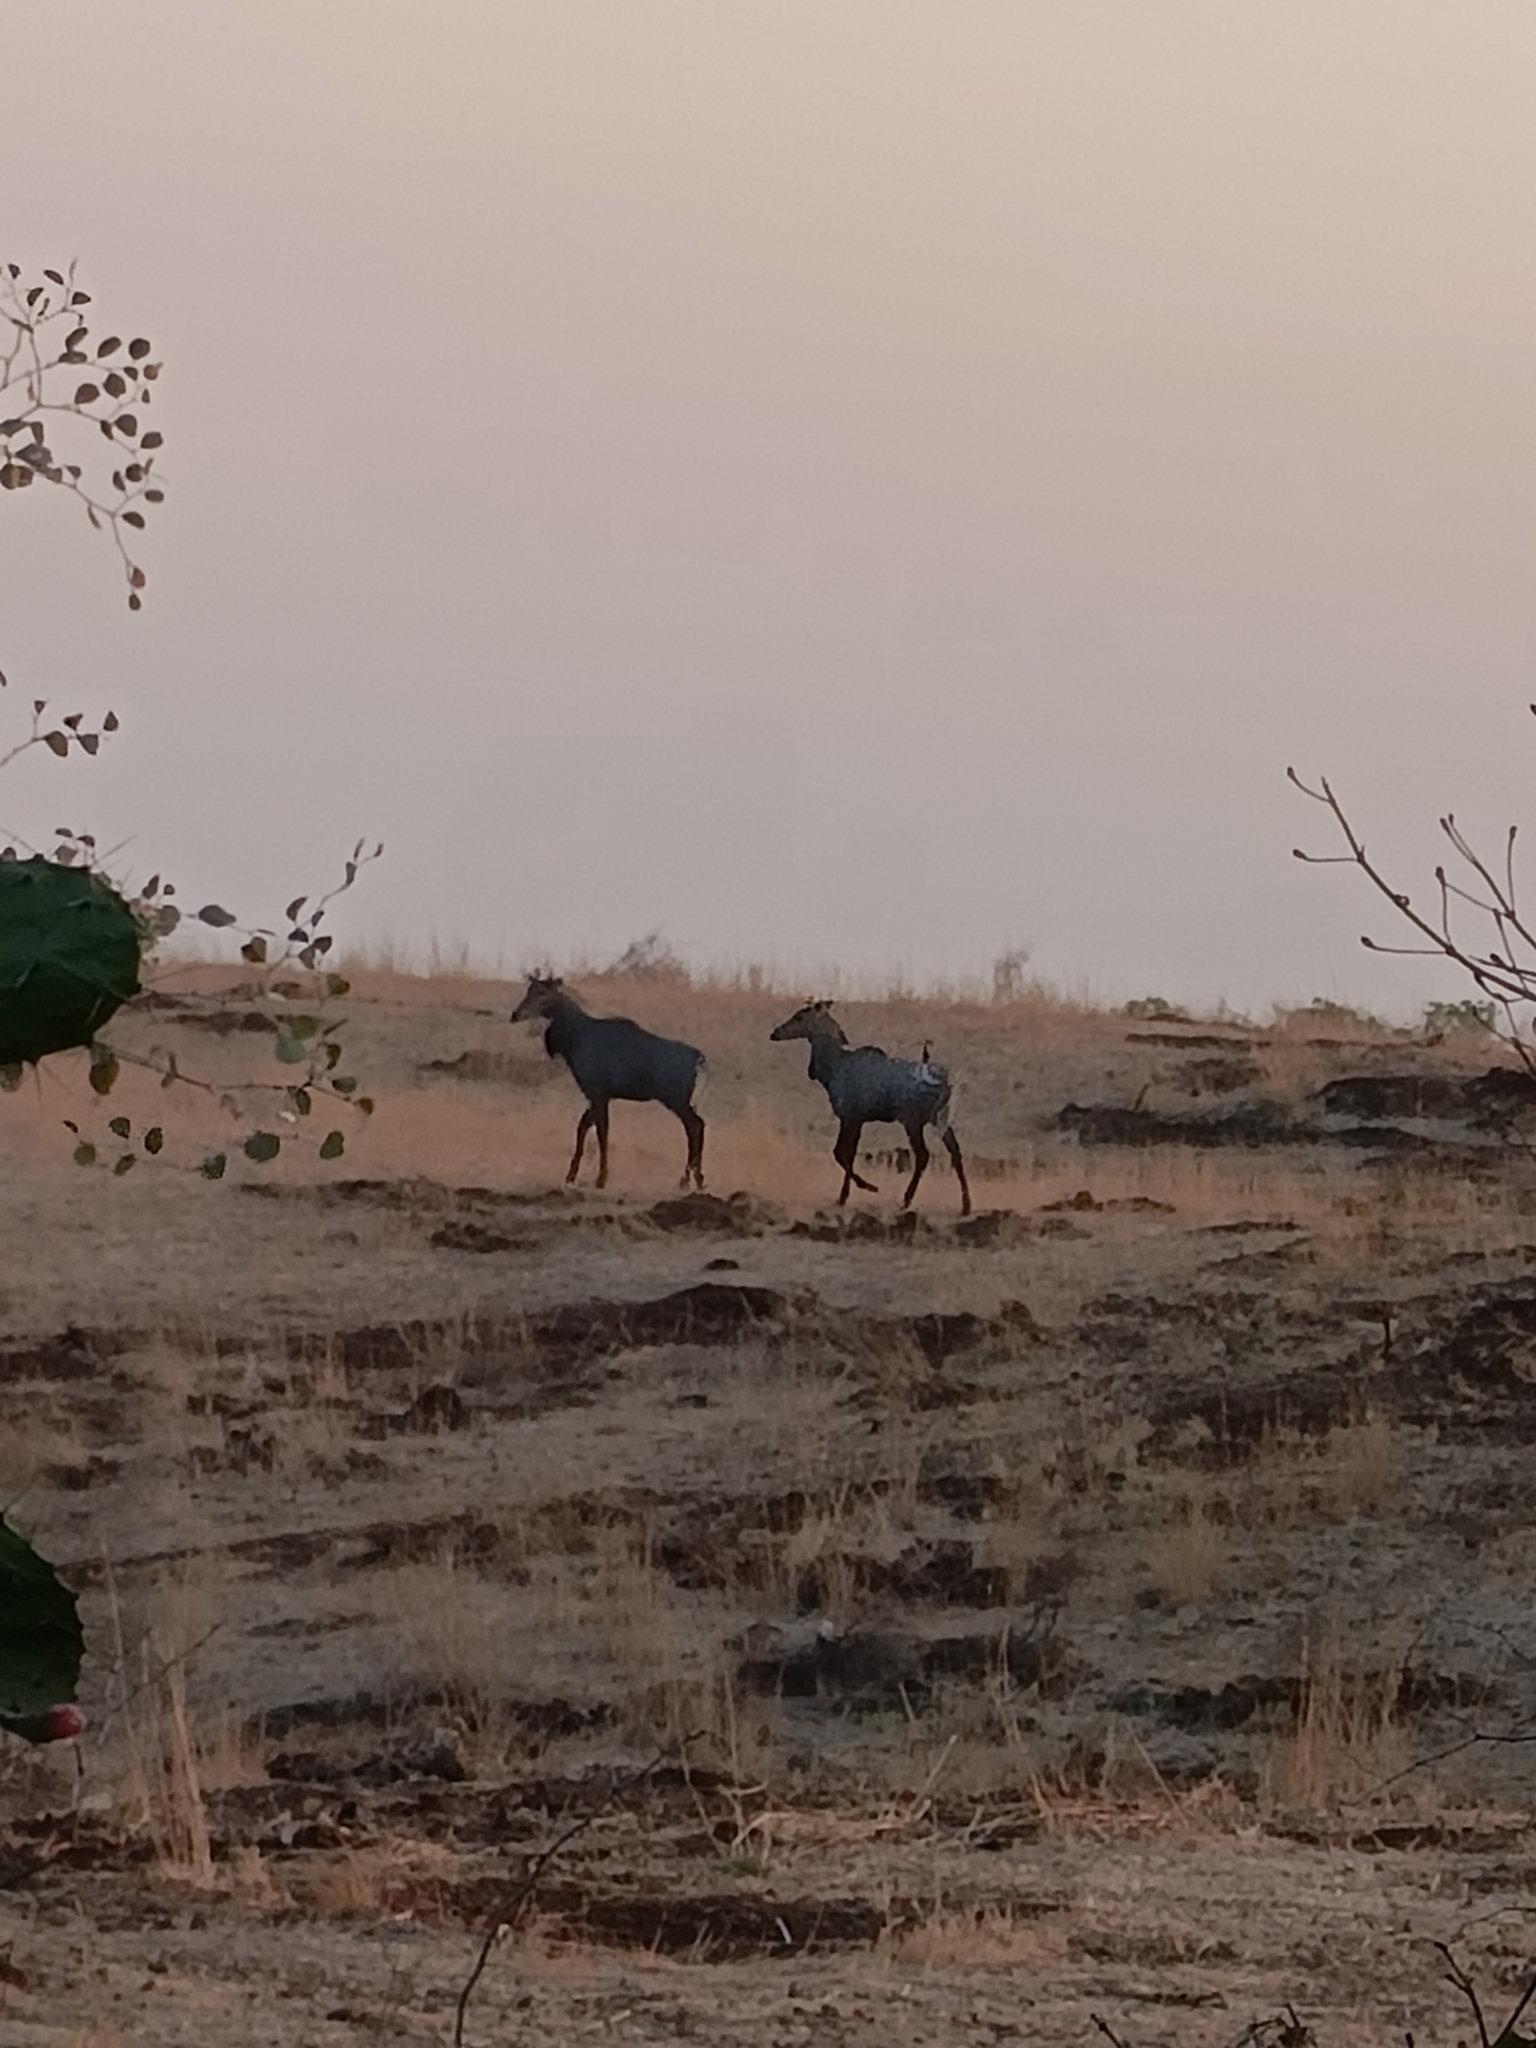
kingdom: Animalia
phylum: Chordata
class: Mammalia
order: Artiodactyla
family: Bovidae
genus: Boselaphus
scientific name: Boselaphus tragocamelus
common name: Nilgai
